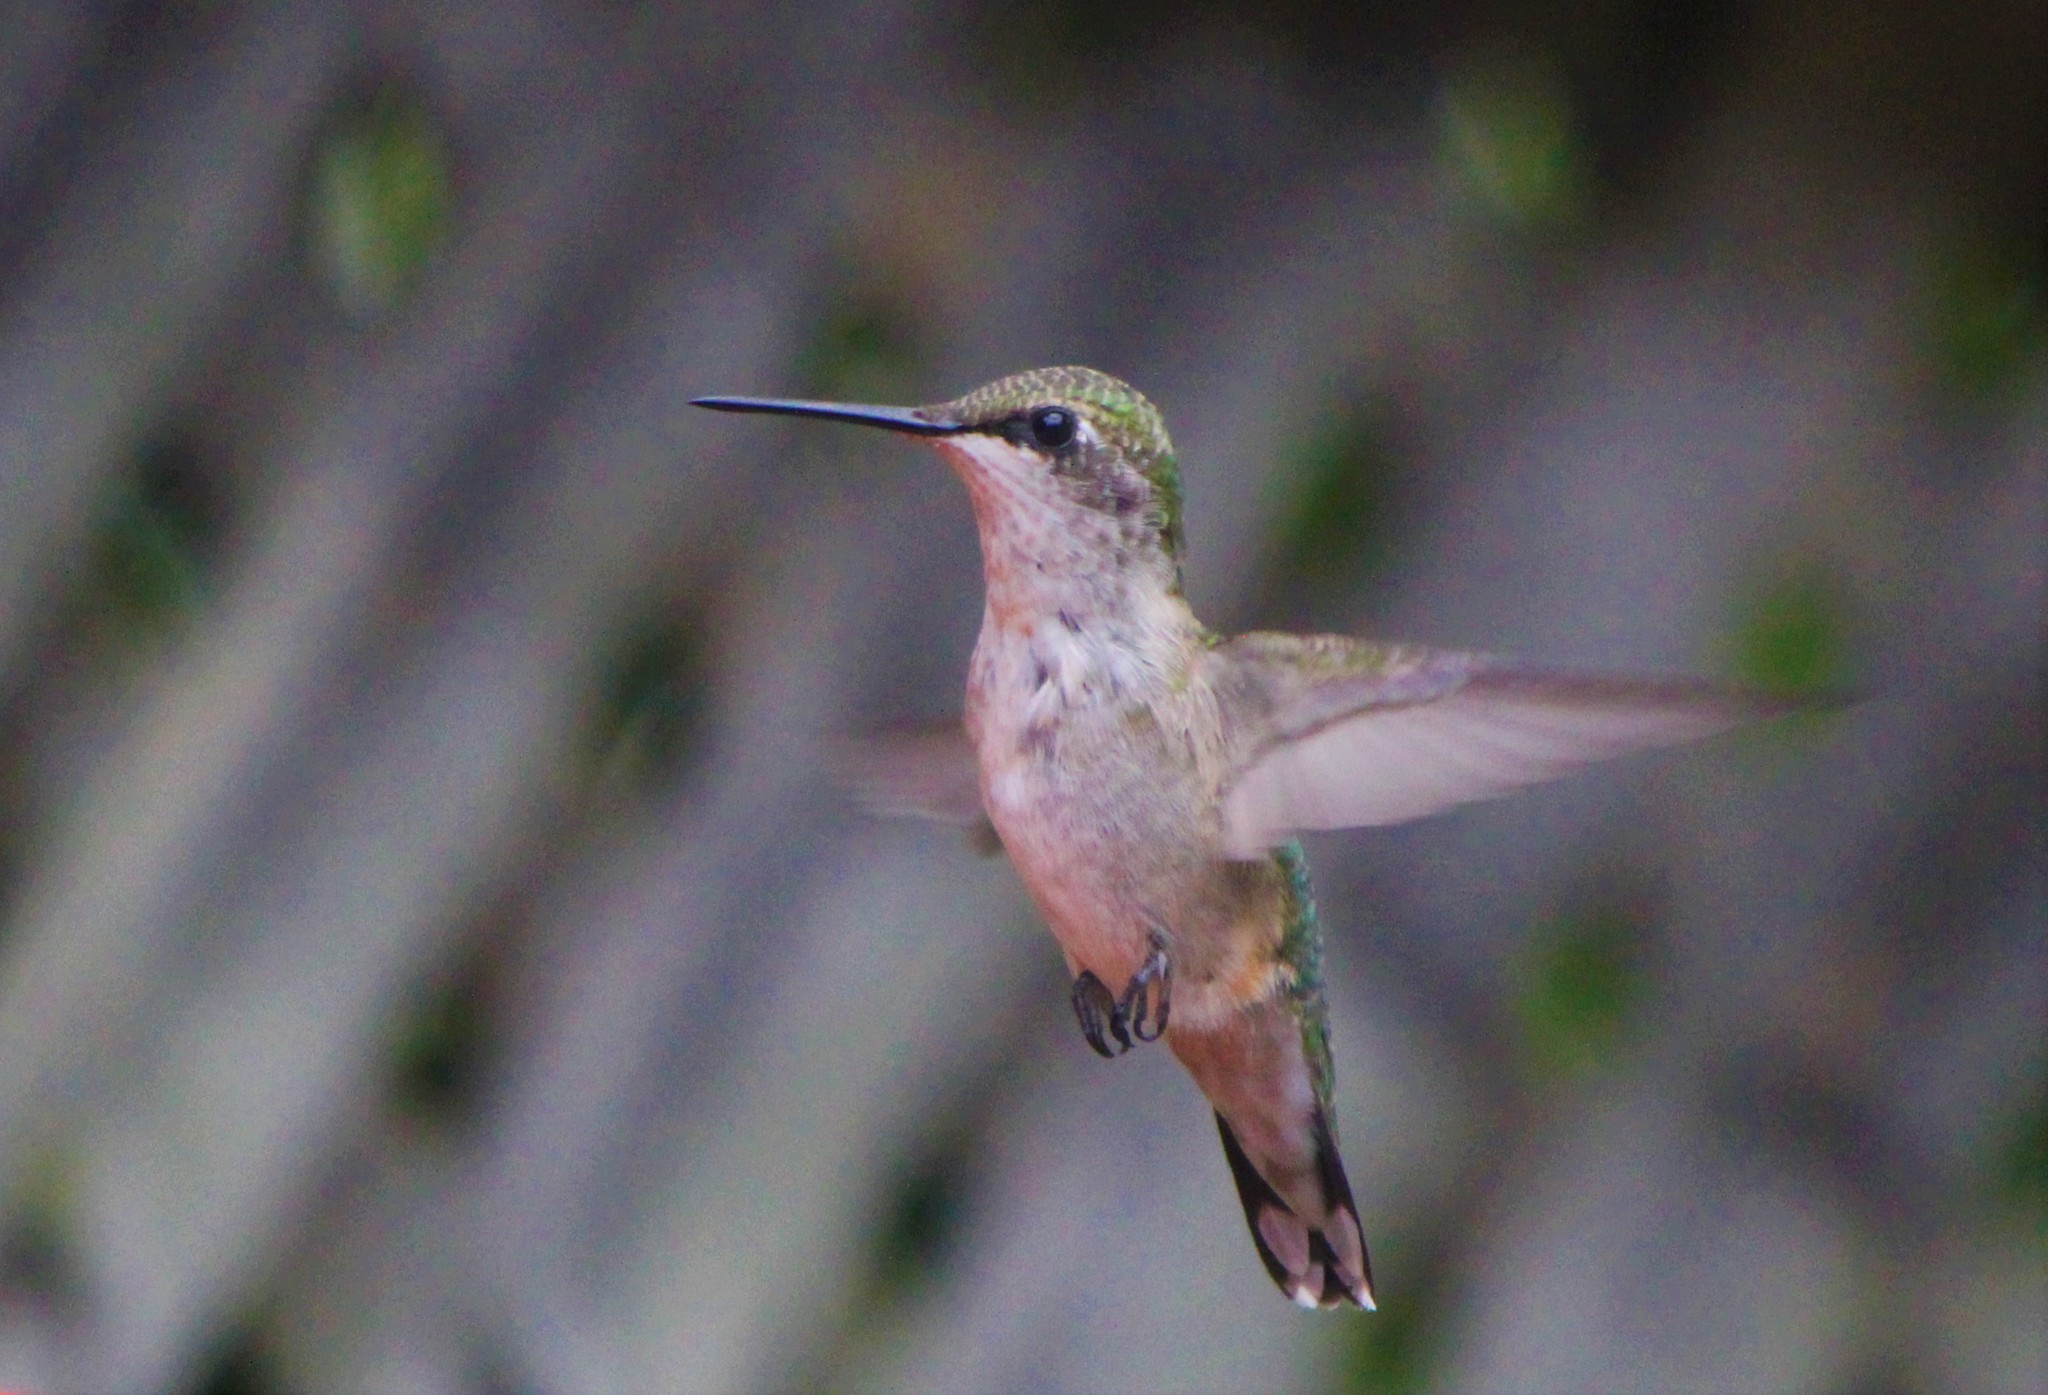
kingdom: Animalia
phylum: Chordata
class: Aves
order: Apodiformes
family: Trochilidae
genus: Archilochus
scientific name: Archilochus colubris
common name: Ruby-throated hummingbird
